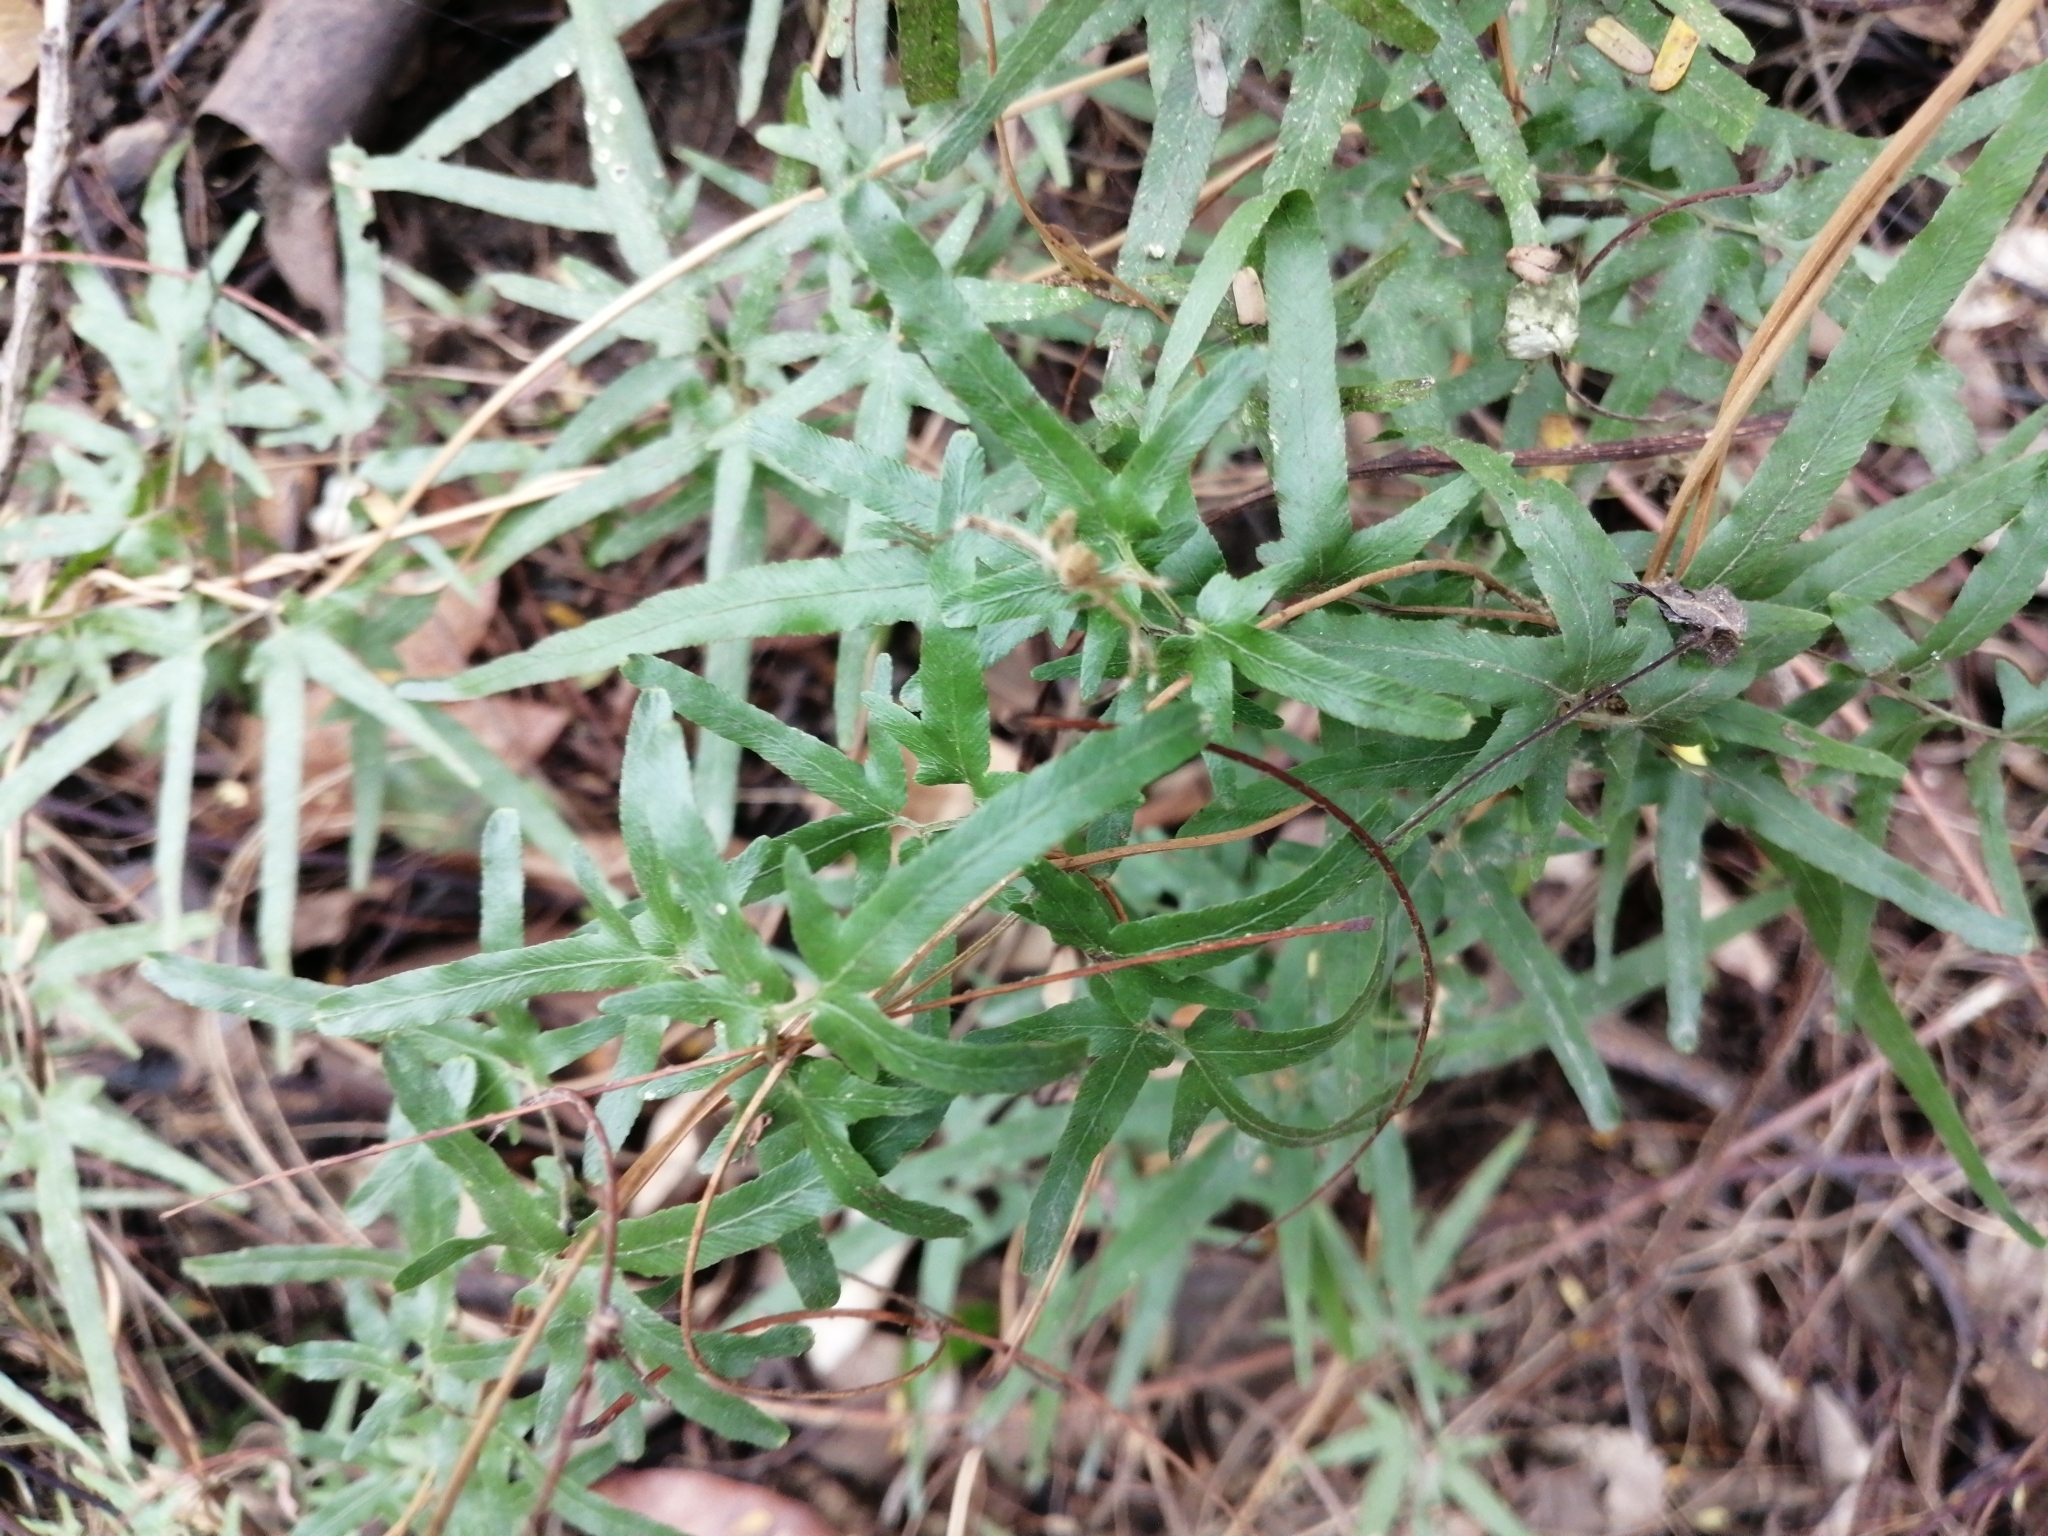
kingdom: Plantae
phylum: Tracheophyta
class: Polypodiopsida
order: Schizaeales
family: Lygodiaceae
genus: Lygodium
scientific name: Lygodium japonicum
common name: Japanese climbing fern
